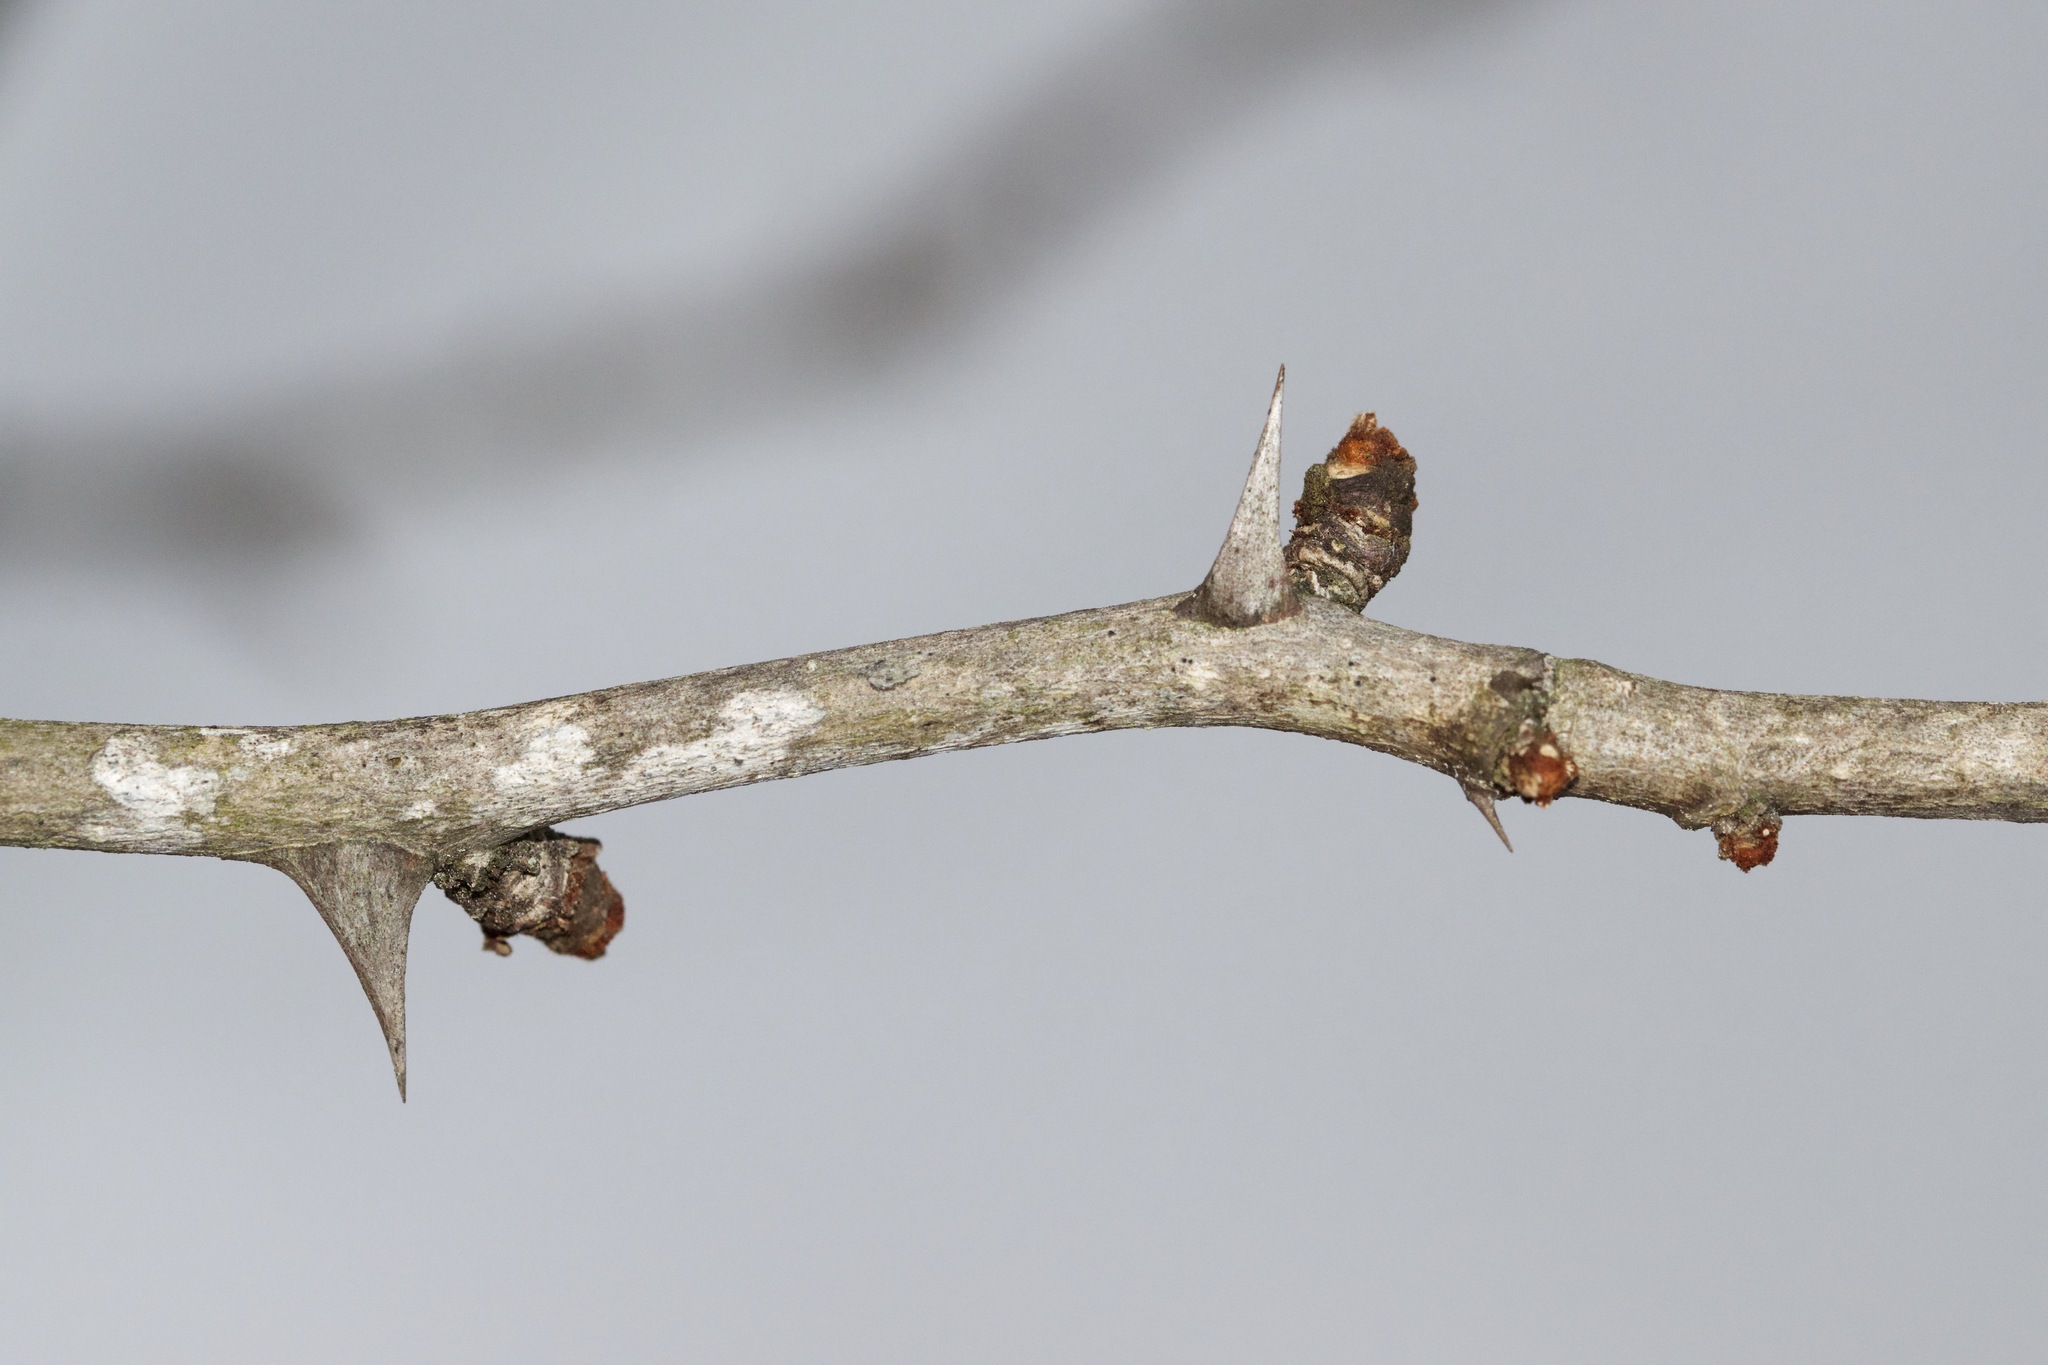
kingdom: Plantae
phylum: Tracheophyta
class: Magnoliopsida
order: Sapindales
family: Rutaceae
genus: Zanthoxylum
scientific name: Zanthoxylum americanum
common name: Northern prickly-ash
